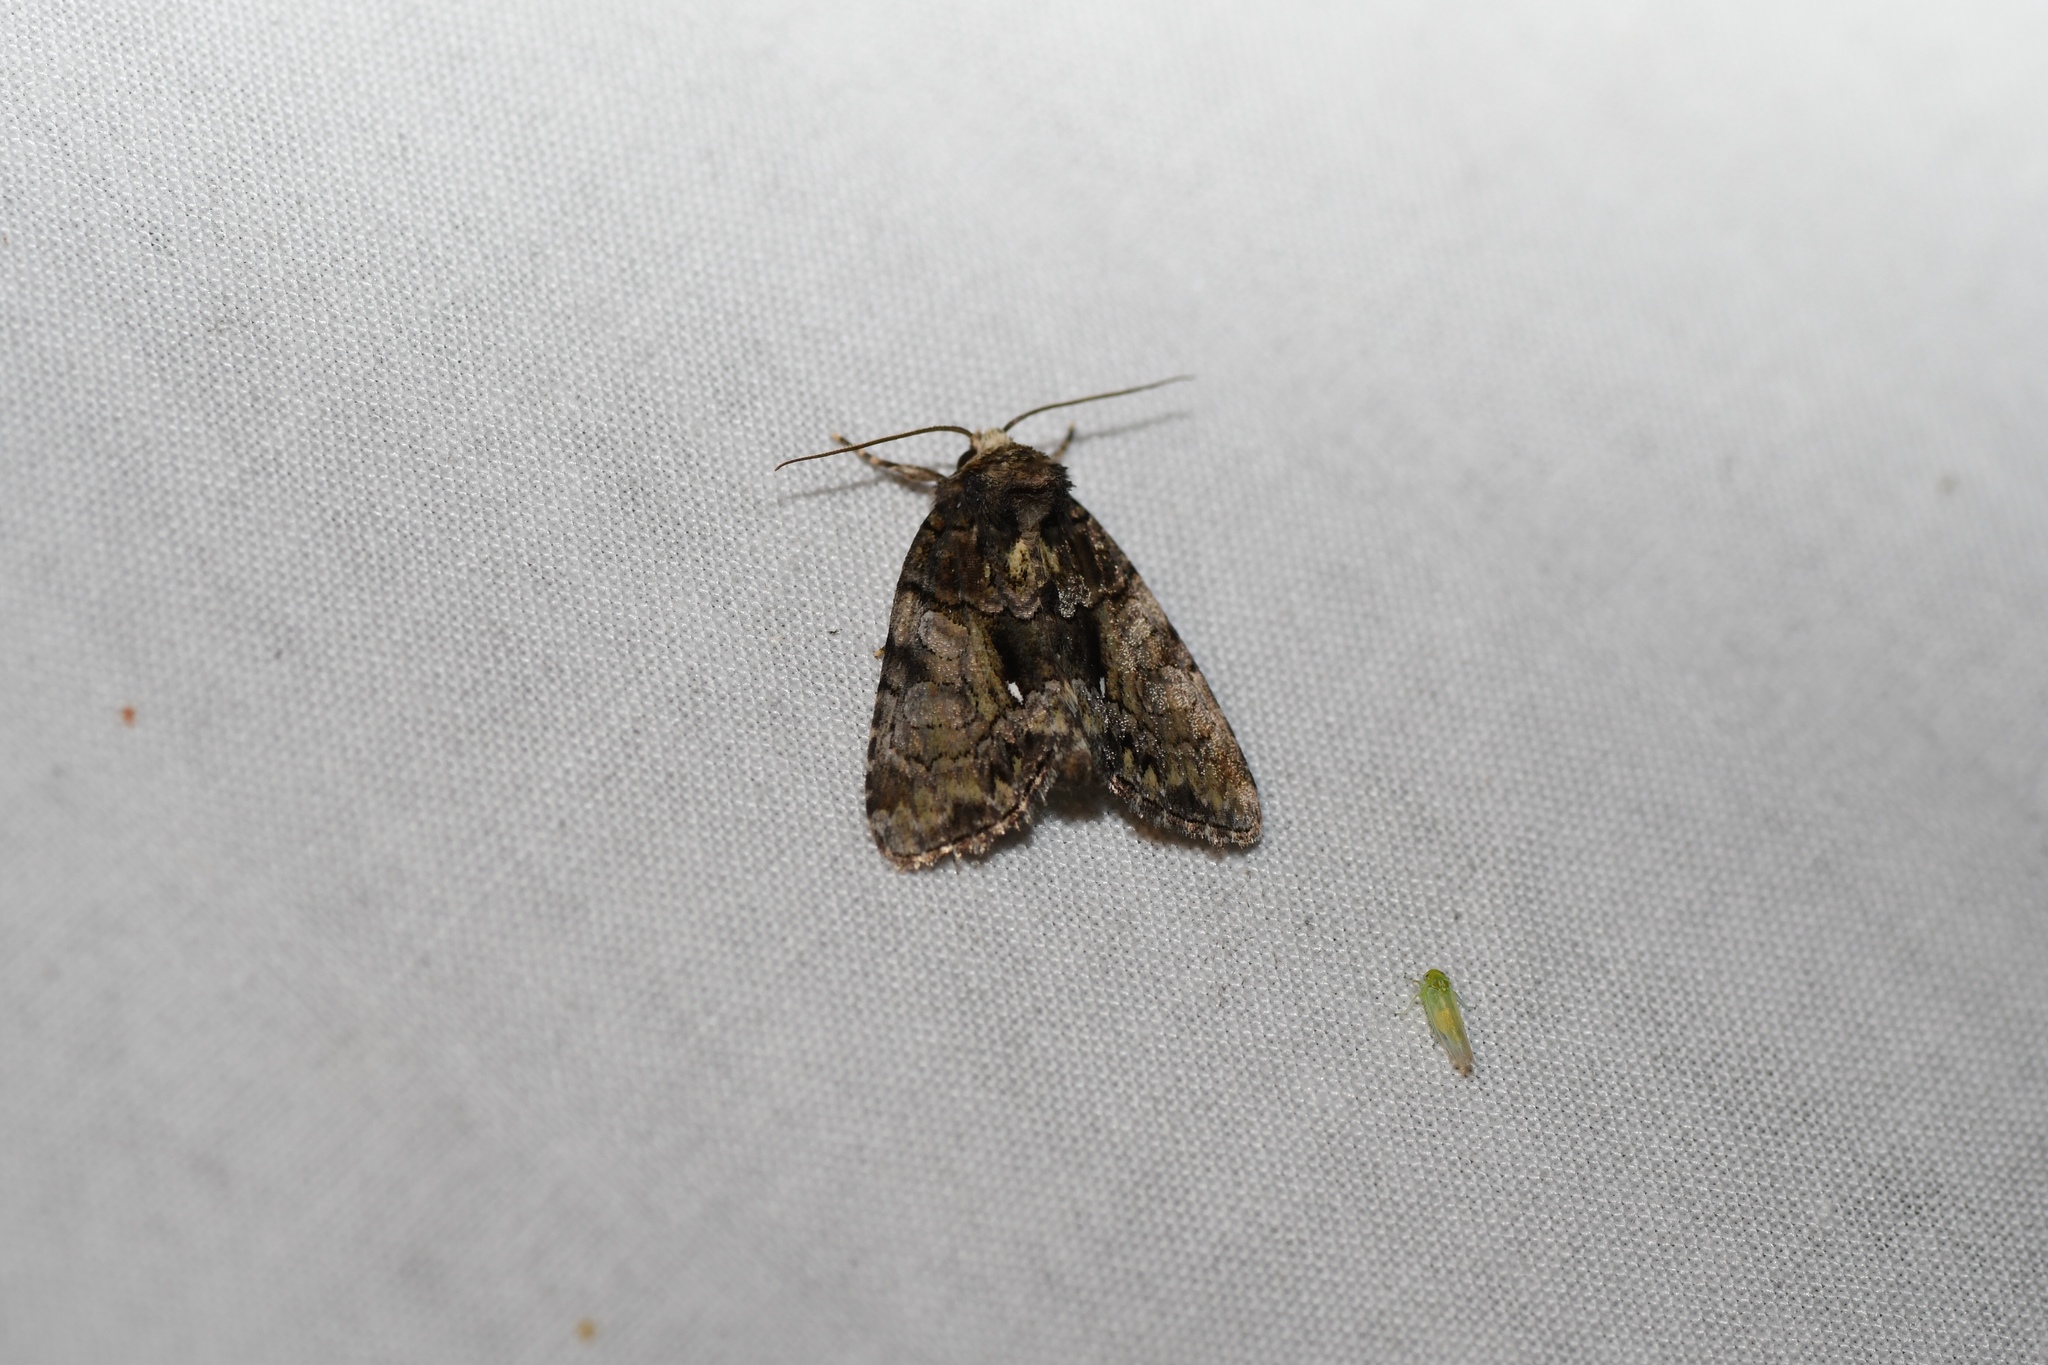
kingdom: Animalia
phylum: Arthropoda
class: Insecta
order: Lepidoptera
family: Noctuidae
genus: Chytonix
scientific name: Chytonix palliatricula
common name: Cloaked marvel
